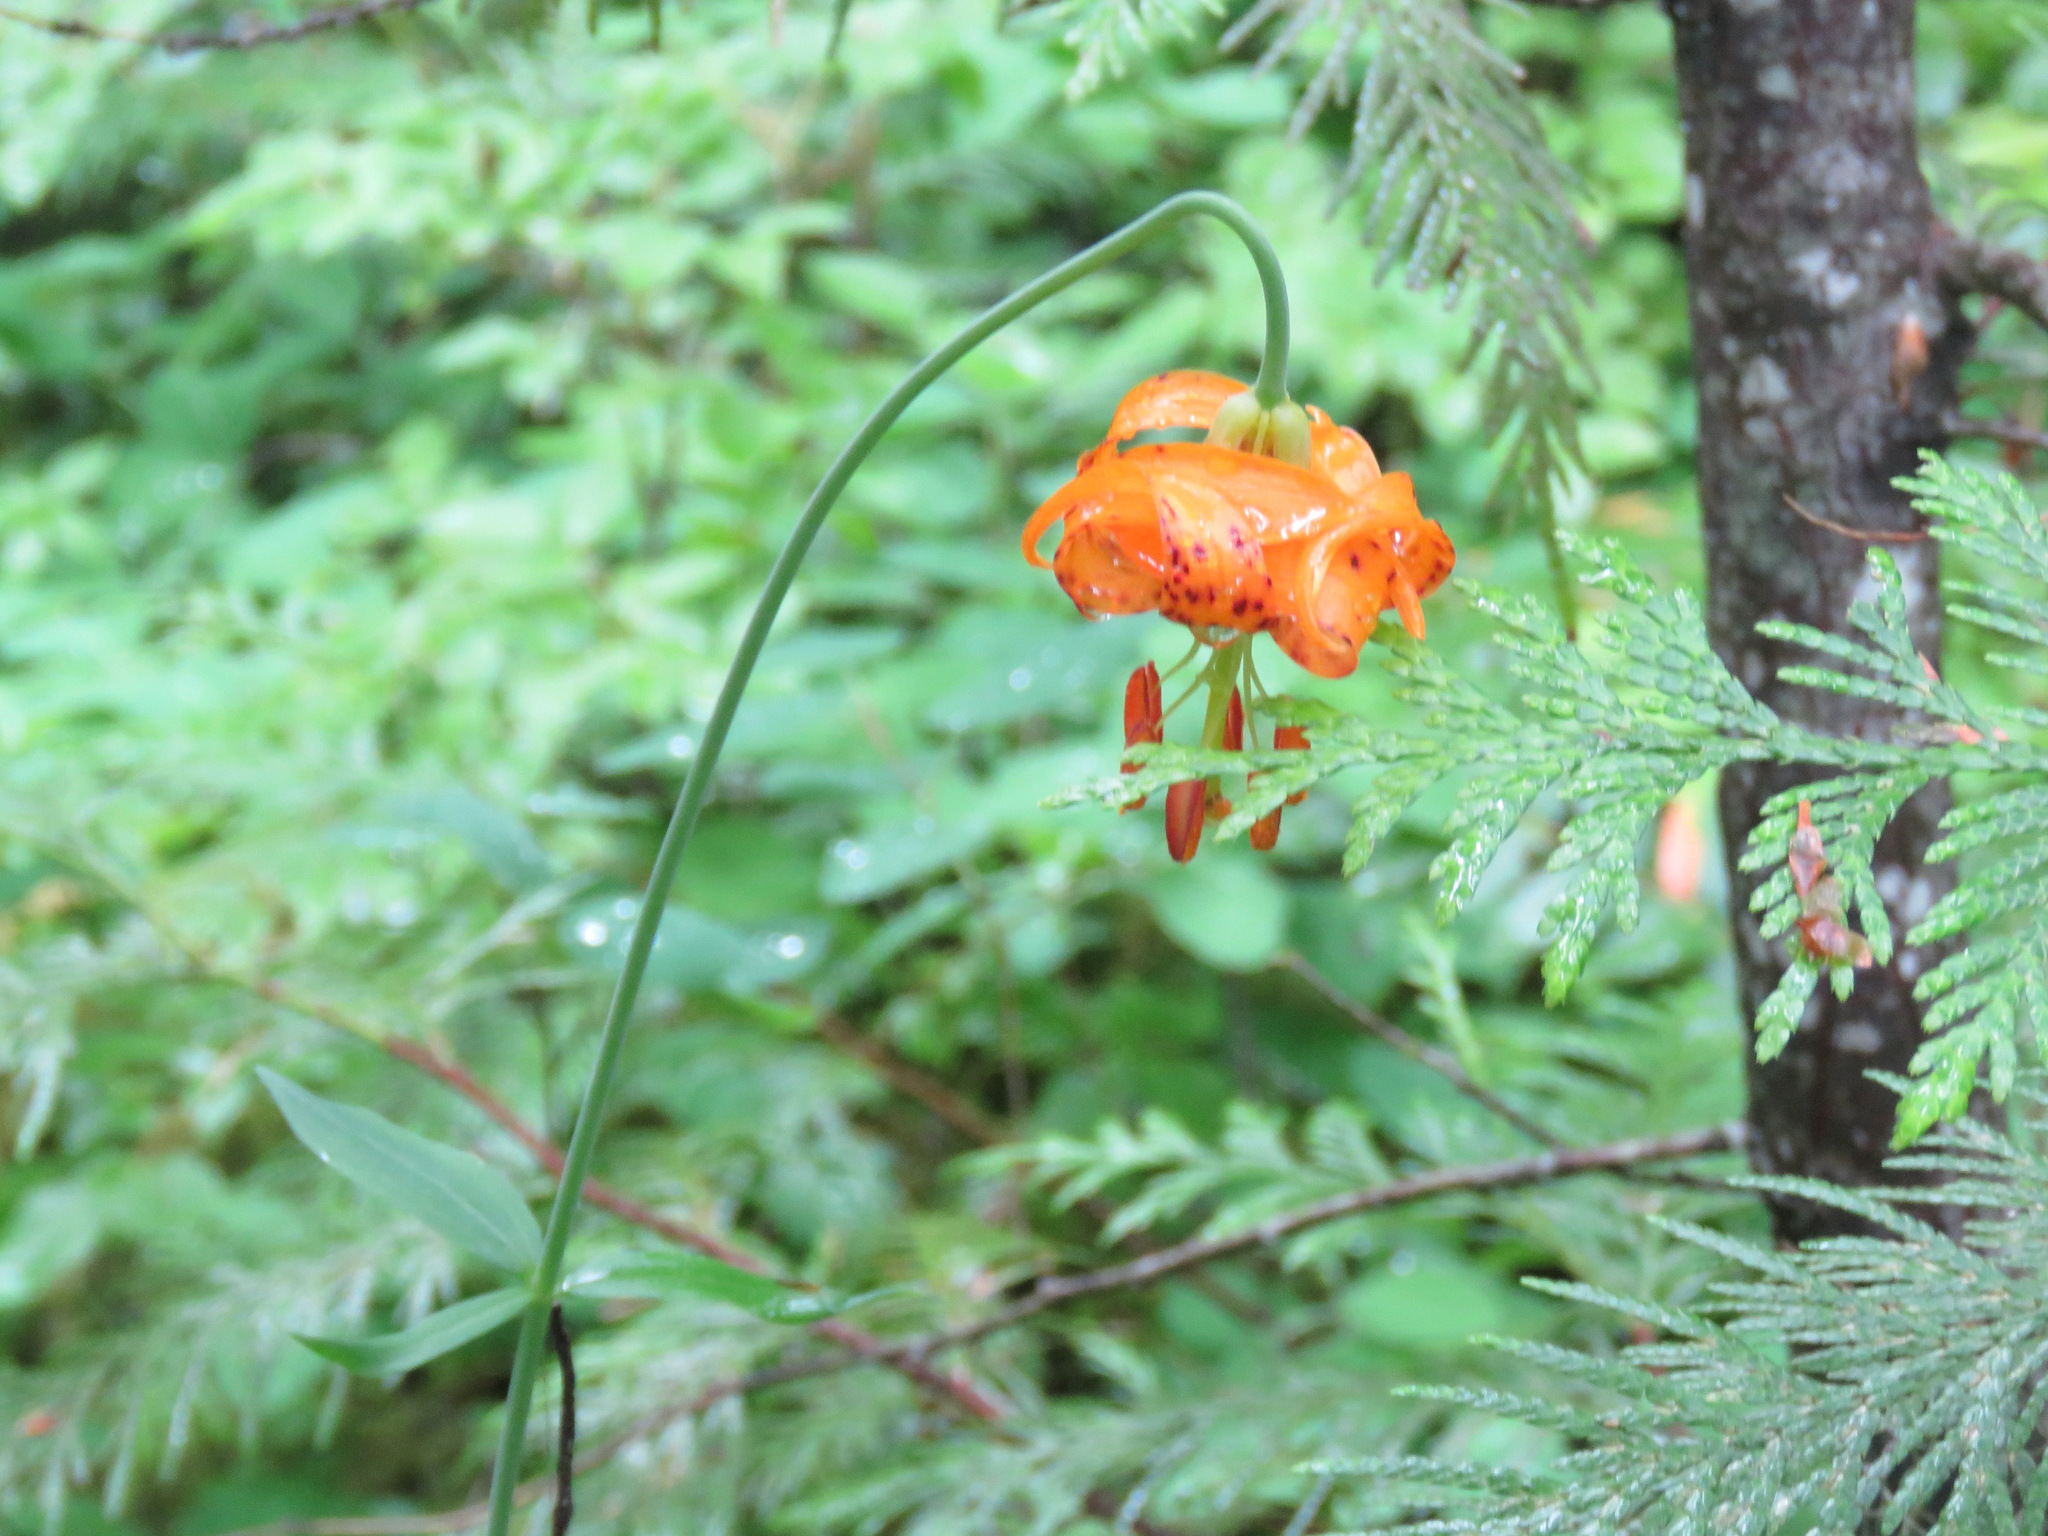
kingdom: Plantae
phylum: Tracheophyta
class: Liliopsida
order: Liliales
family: Liliaceae
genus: Lilium
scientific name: Lilium columbianum
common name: Columbia lily
